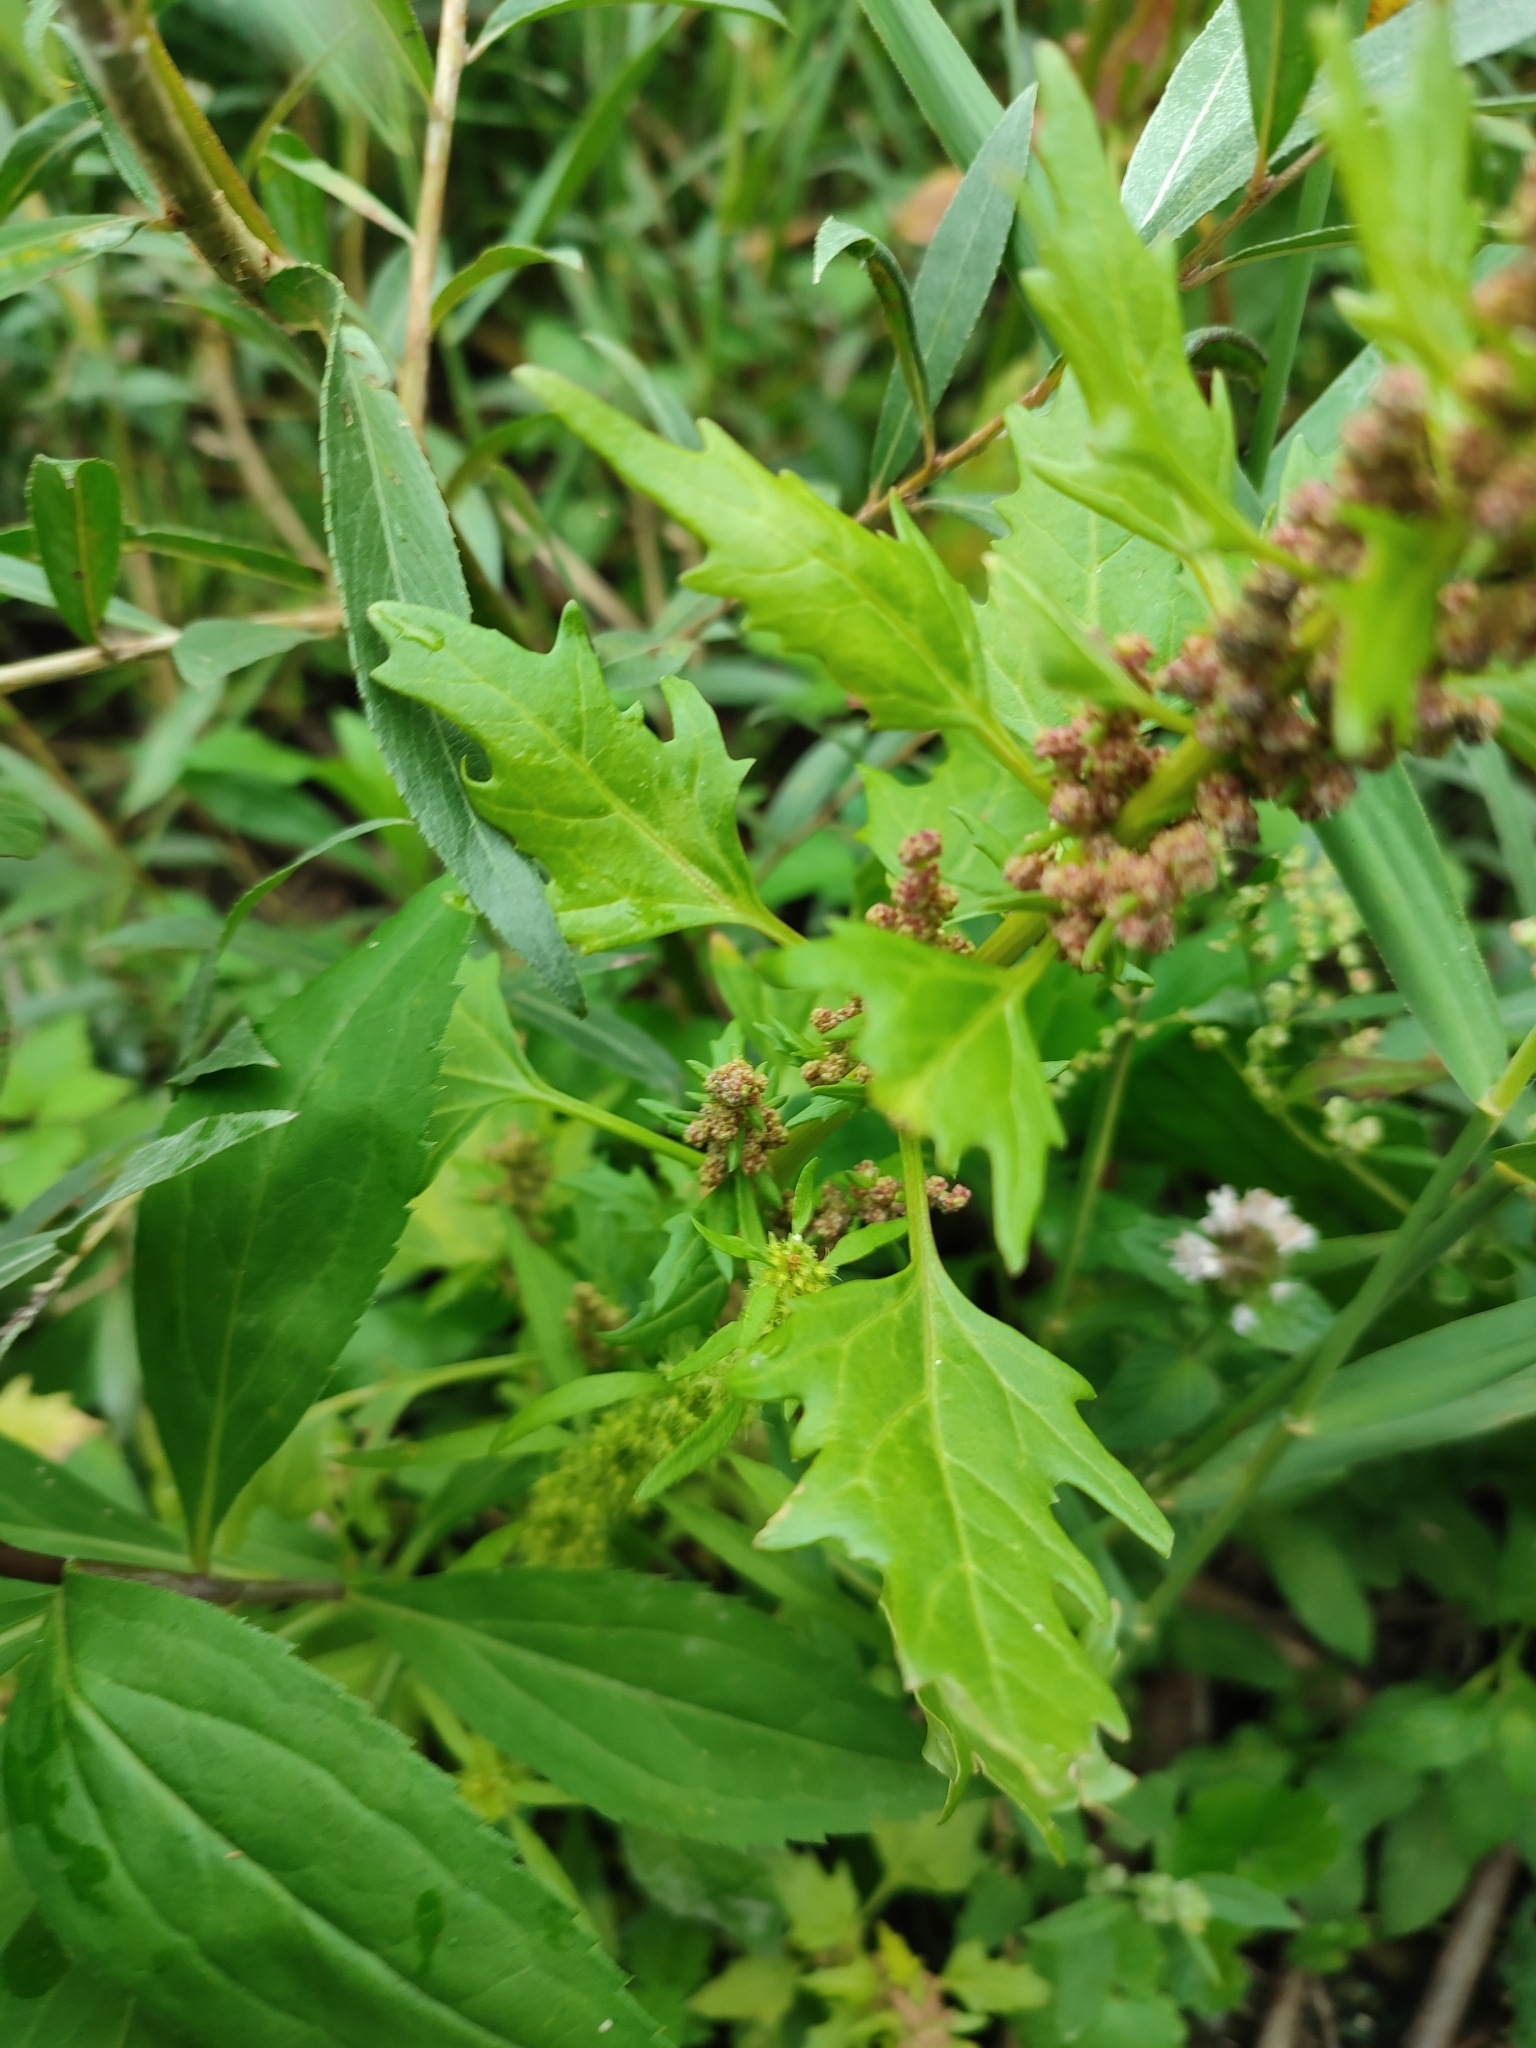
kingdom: Plantae
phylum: Tracheophyta
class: Magnoliopsida
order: Caryophyllales
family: Amaranthaceae
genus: Oxybasis
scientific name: Oxybasis rubra
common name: Red goosefoot
